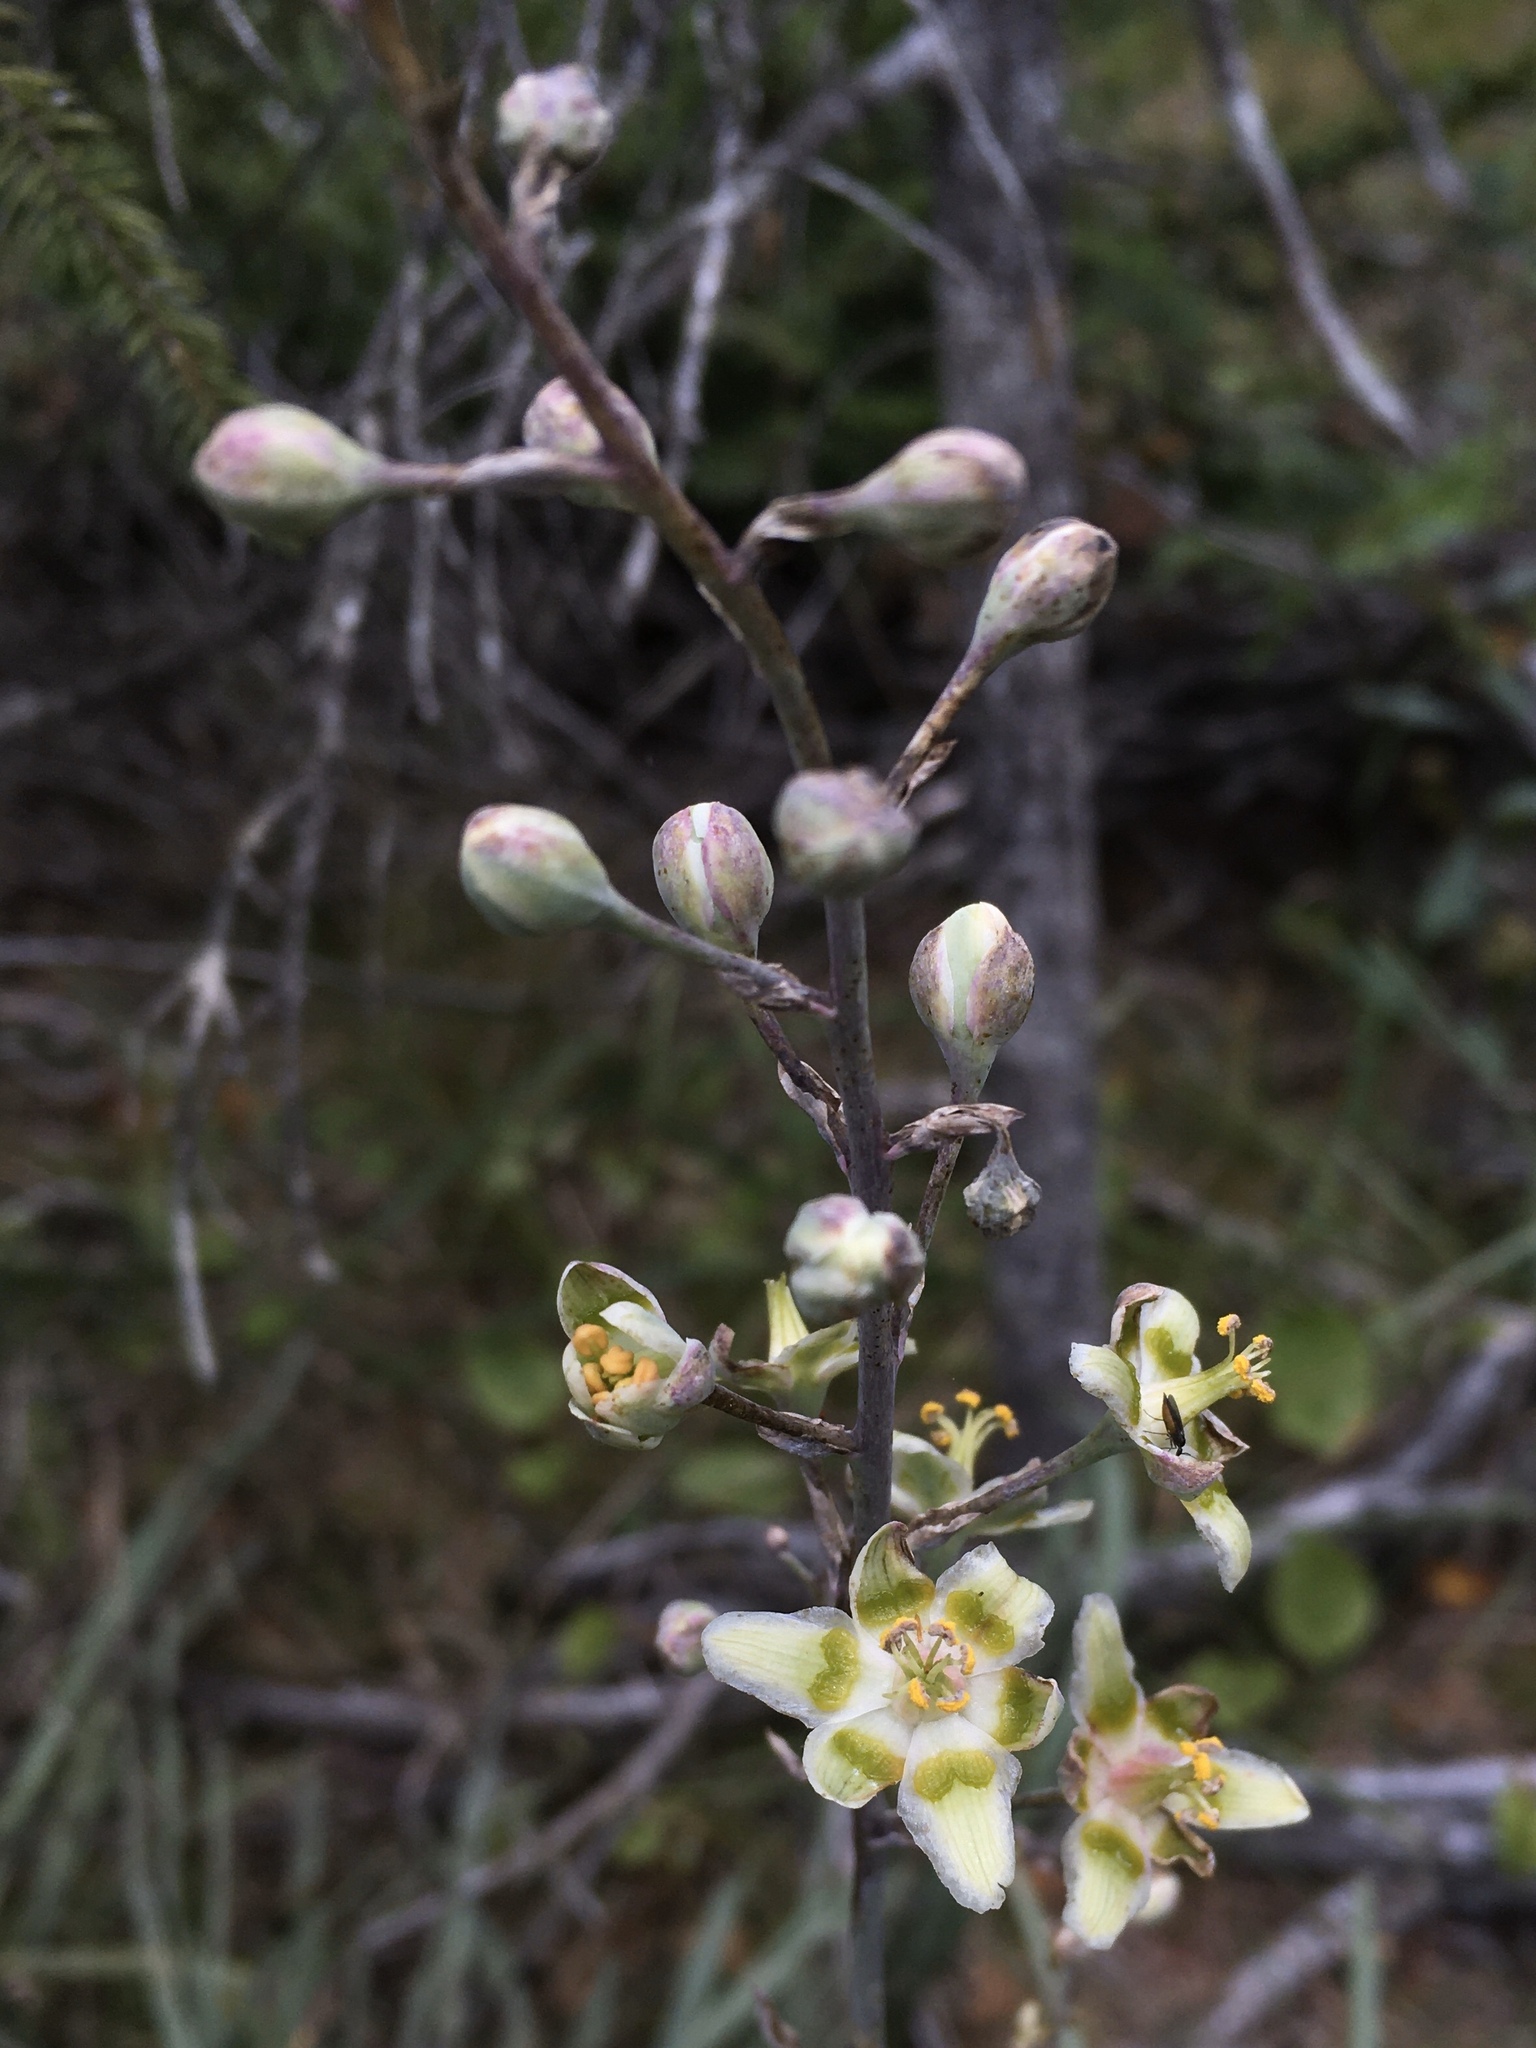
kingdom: Plantae
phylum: Tracheophyta
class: Liliopsida
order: Liliales
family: Melanthiaceae
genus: Anticlea
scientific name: Anticlea elegans
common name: Mountain death camas
